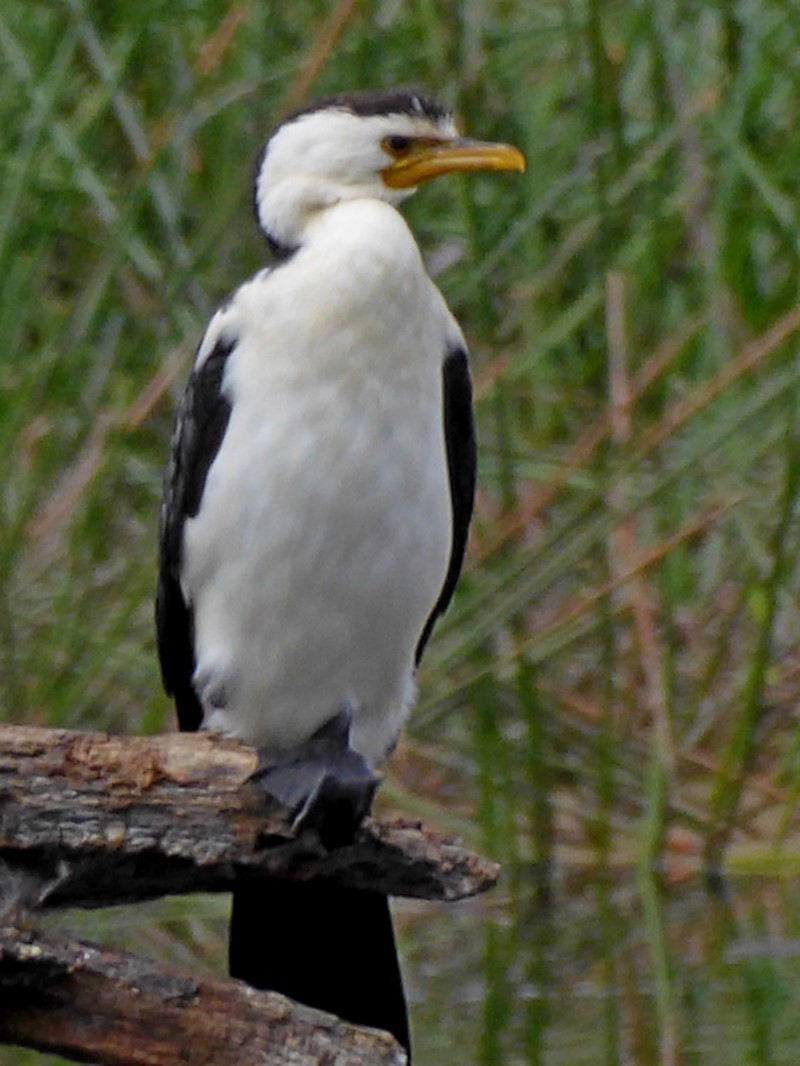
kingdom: Animalia
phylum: Chordata
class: Aves
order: Suliformes
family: Phalacrocoracidae
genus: Microcarbo
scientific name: Microcarbo melanoleucos
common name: Little pied cormorant
